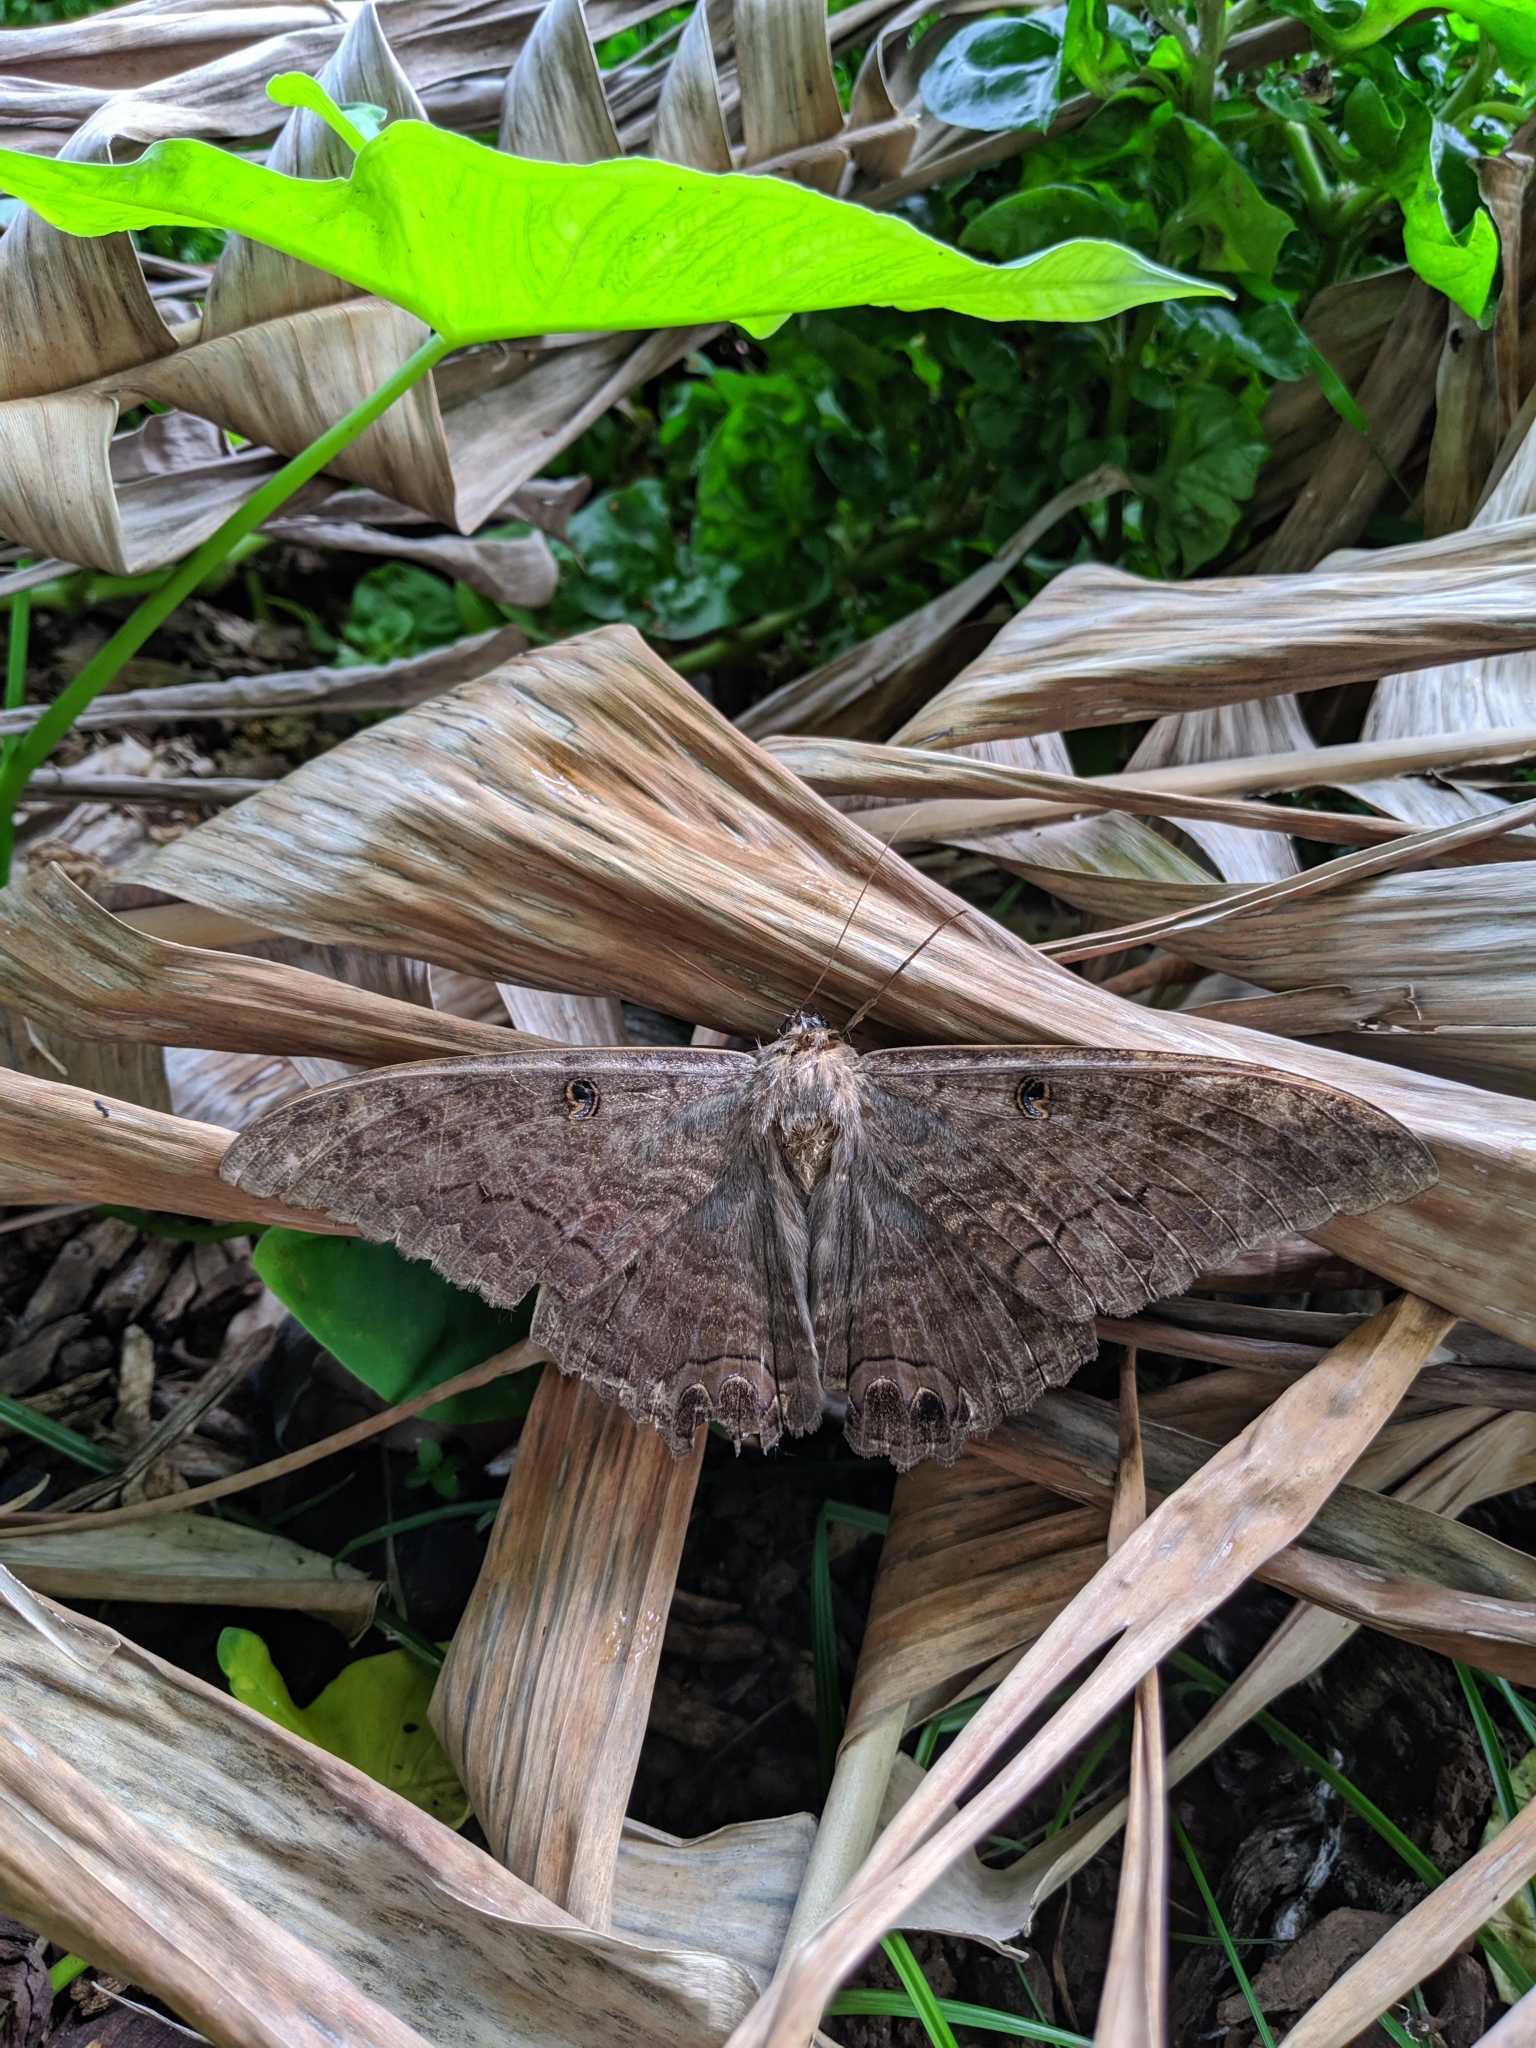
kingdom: Animalia
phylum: Arthropoda
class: Insecta
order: Lepidoptera
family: Erebidae
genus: Ascalapha
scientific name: Ascalapha odorata
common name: Black witch
